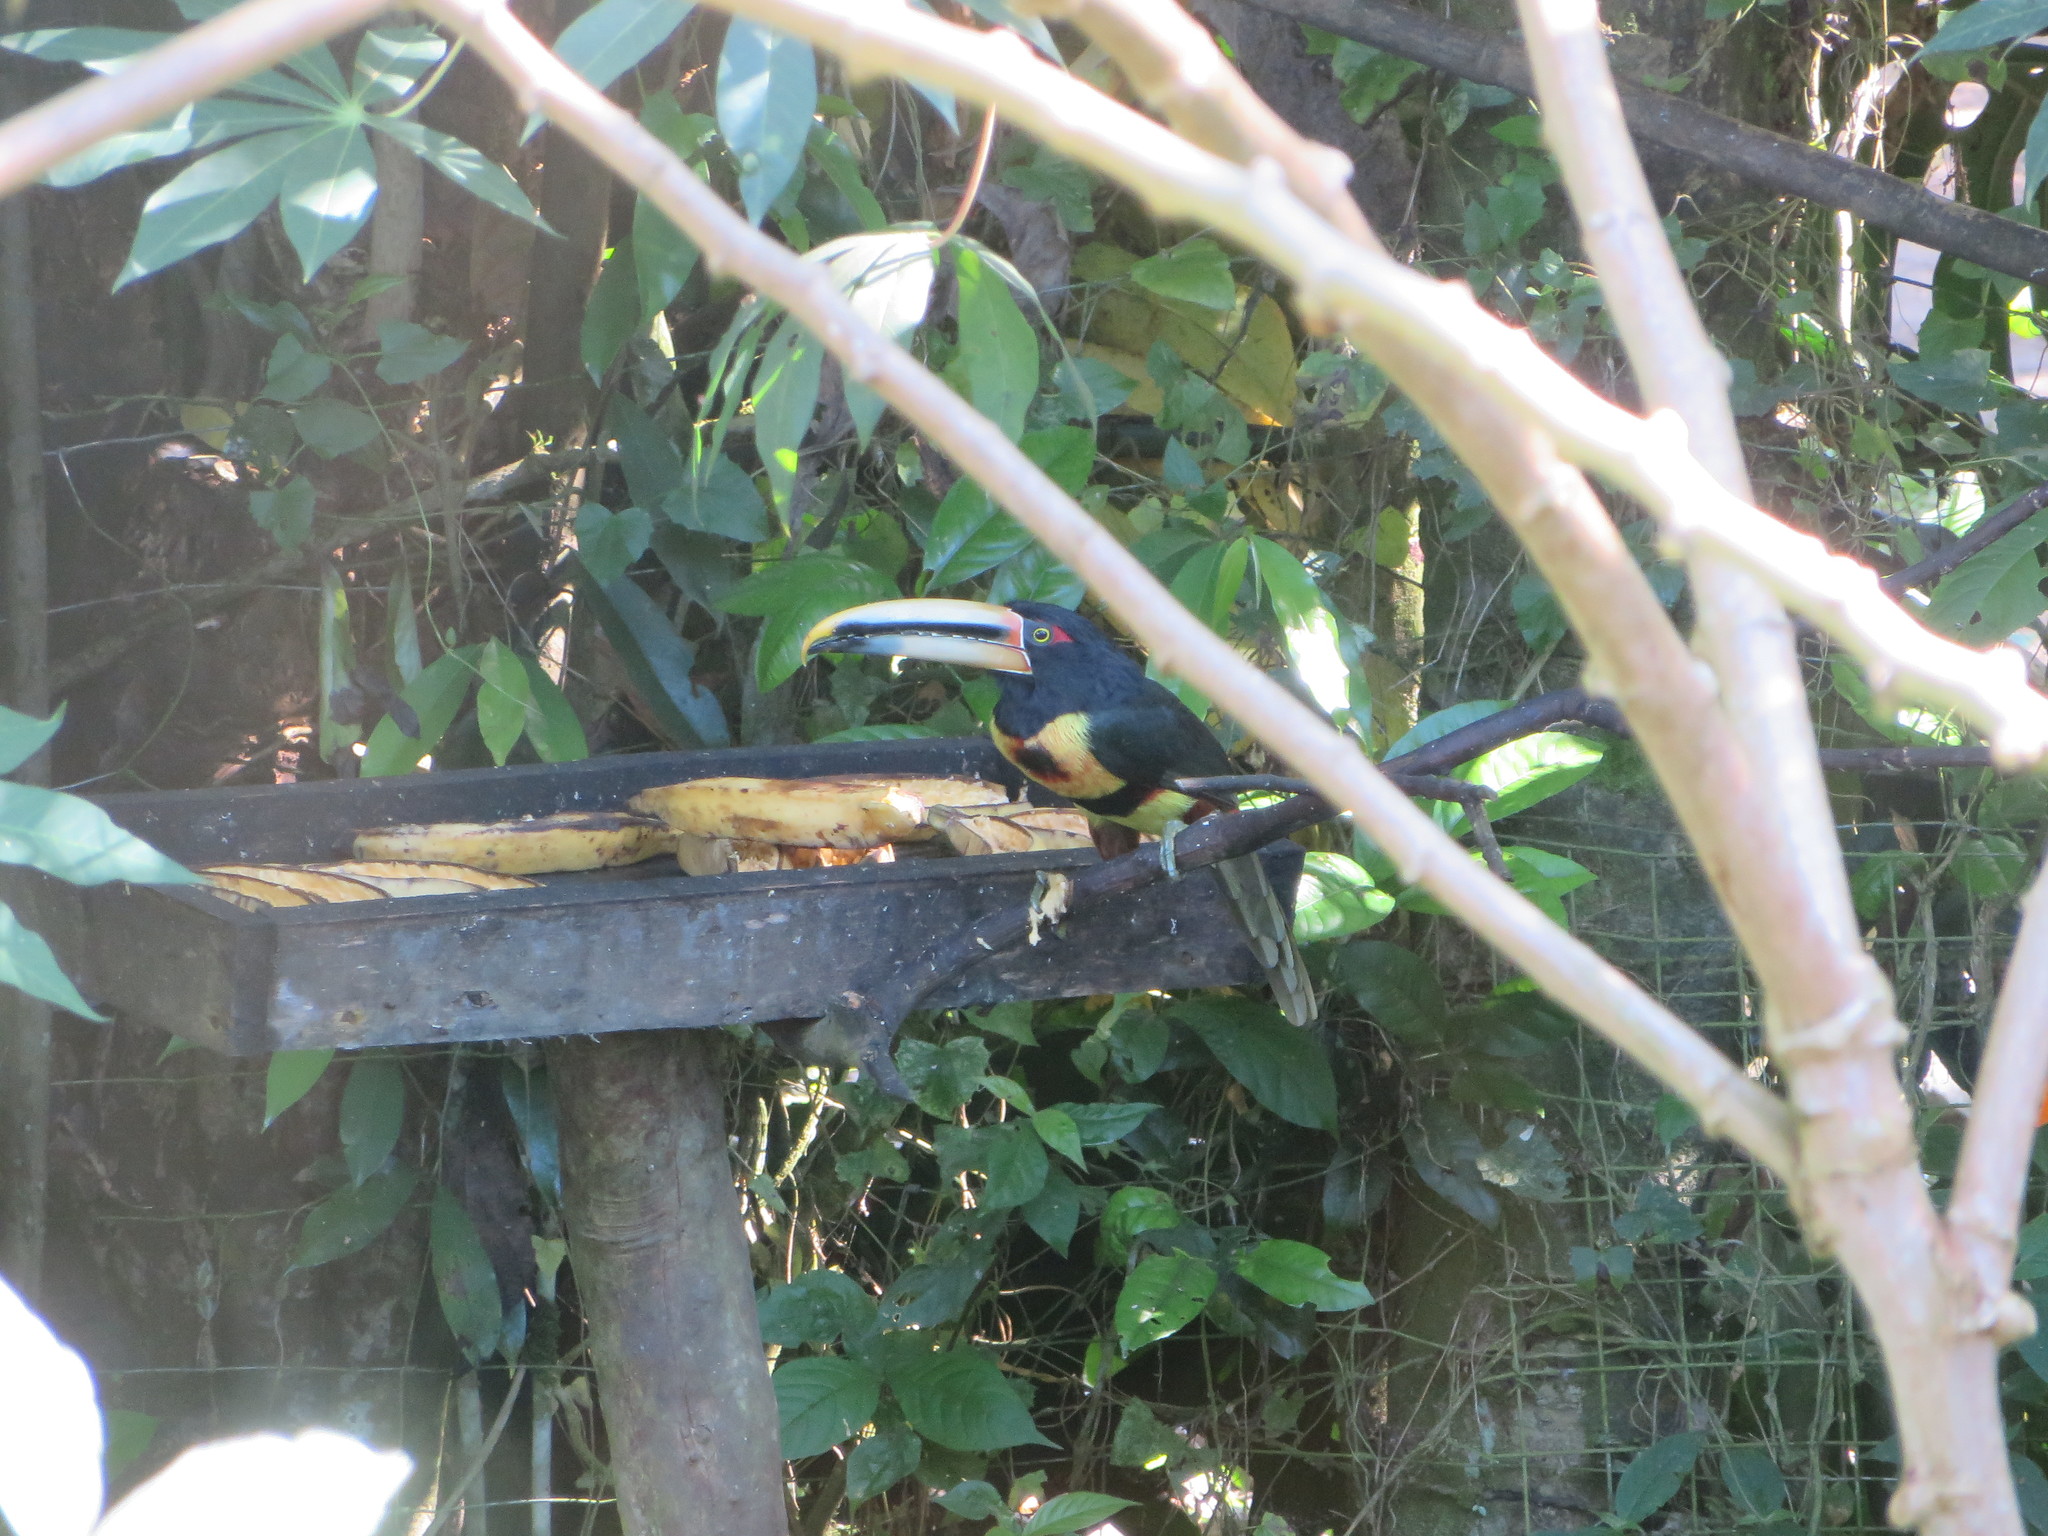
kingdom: Animalia
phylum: Chordata
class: Aves
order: Piciformes
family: Ramphastidae
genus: Pteroglossus
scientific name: Pteroglossus torquatus
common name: Collared aracari
